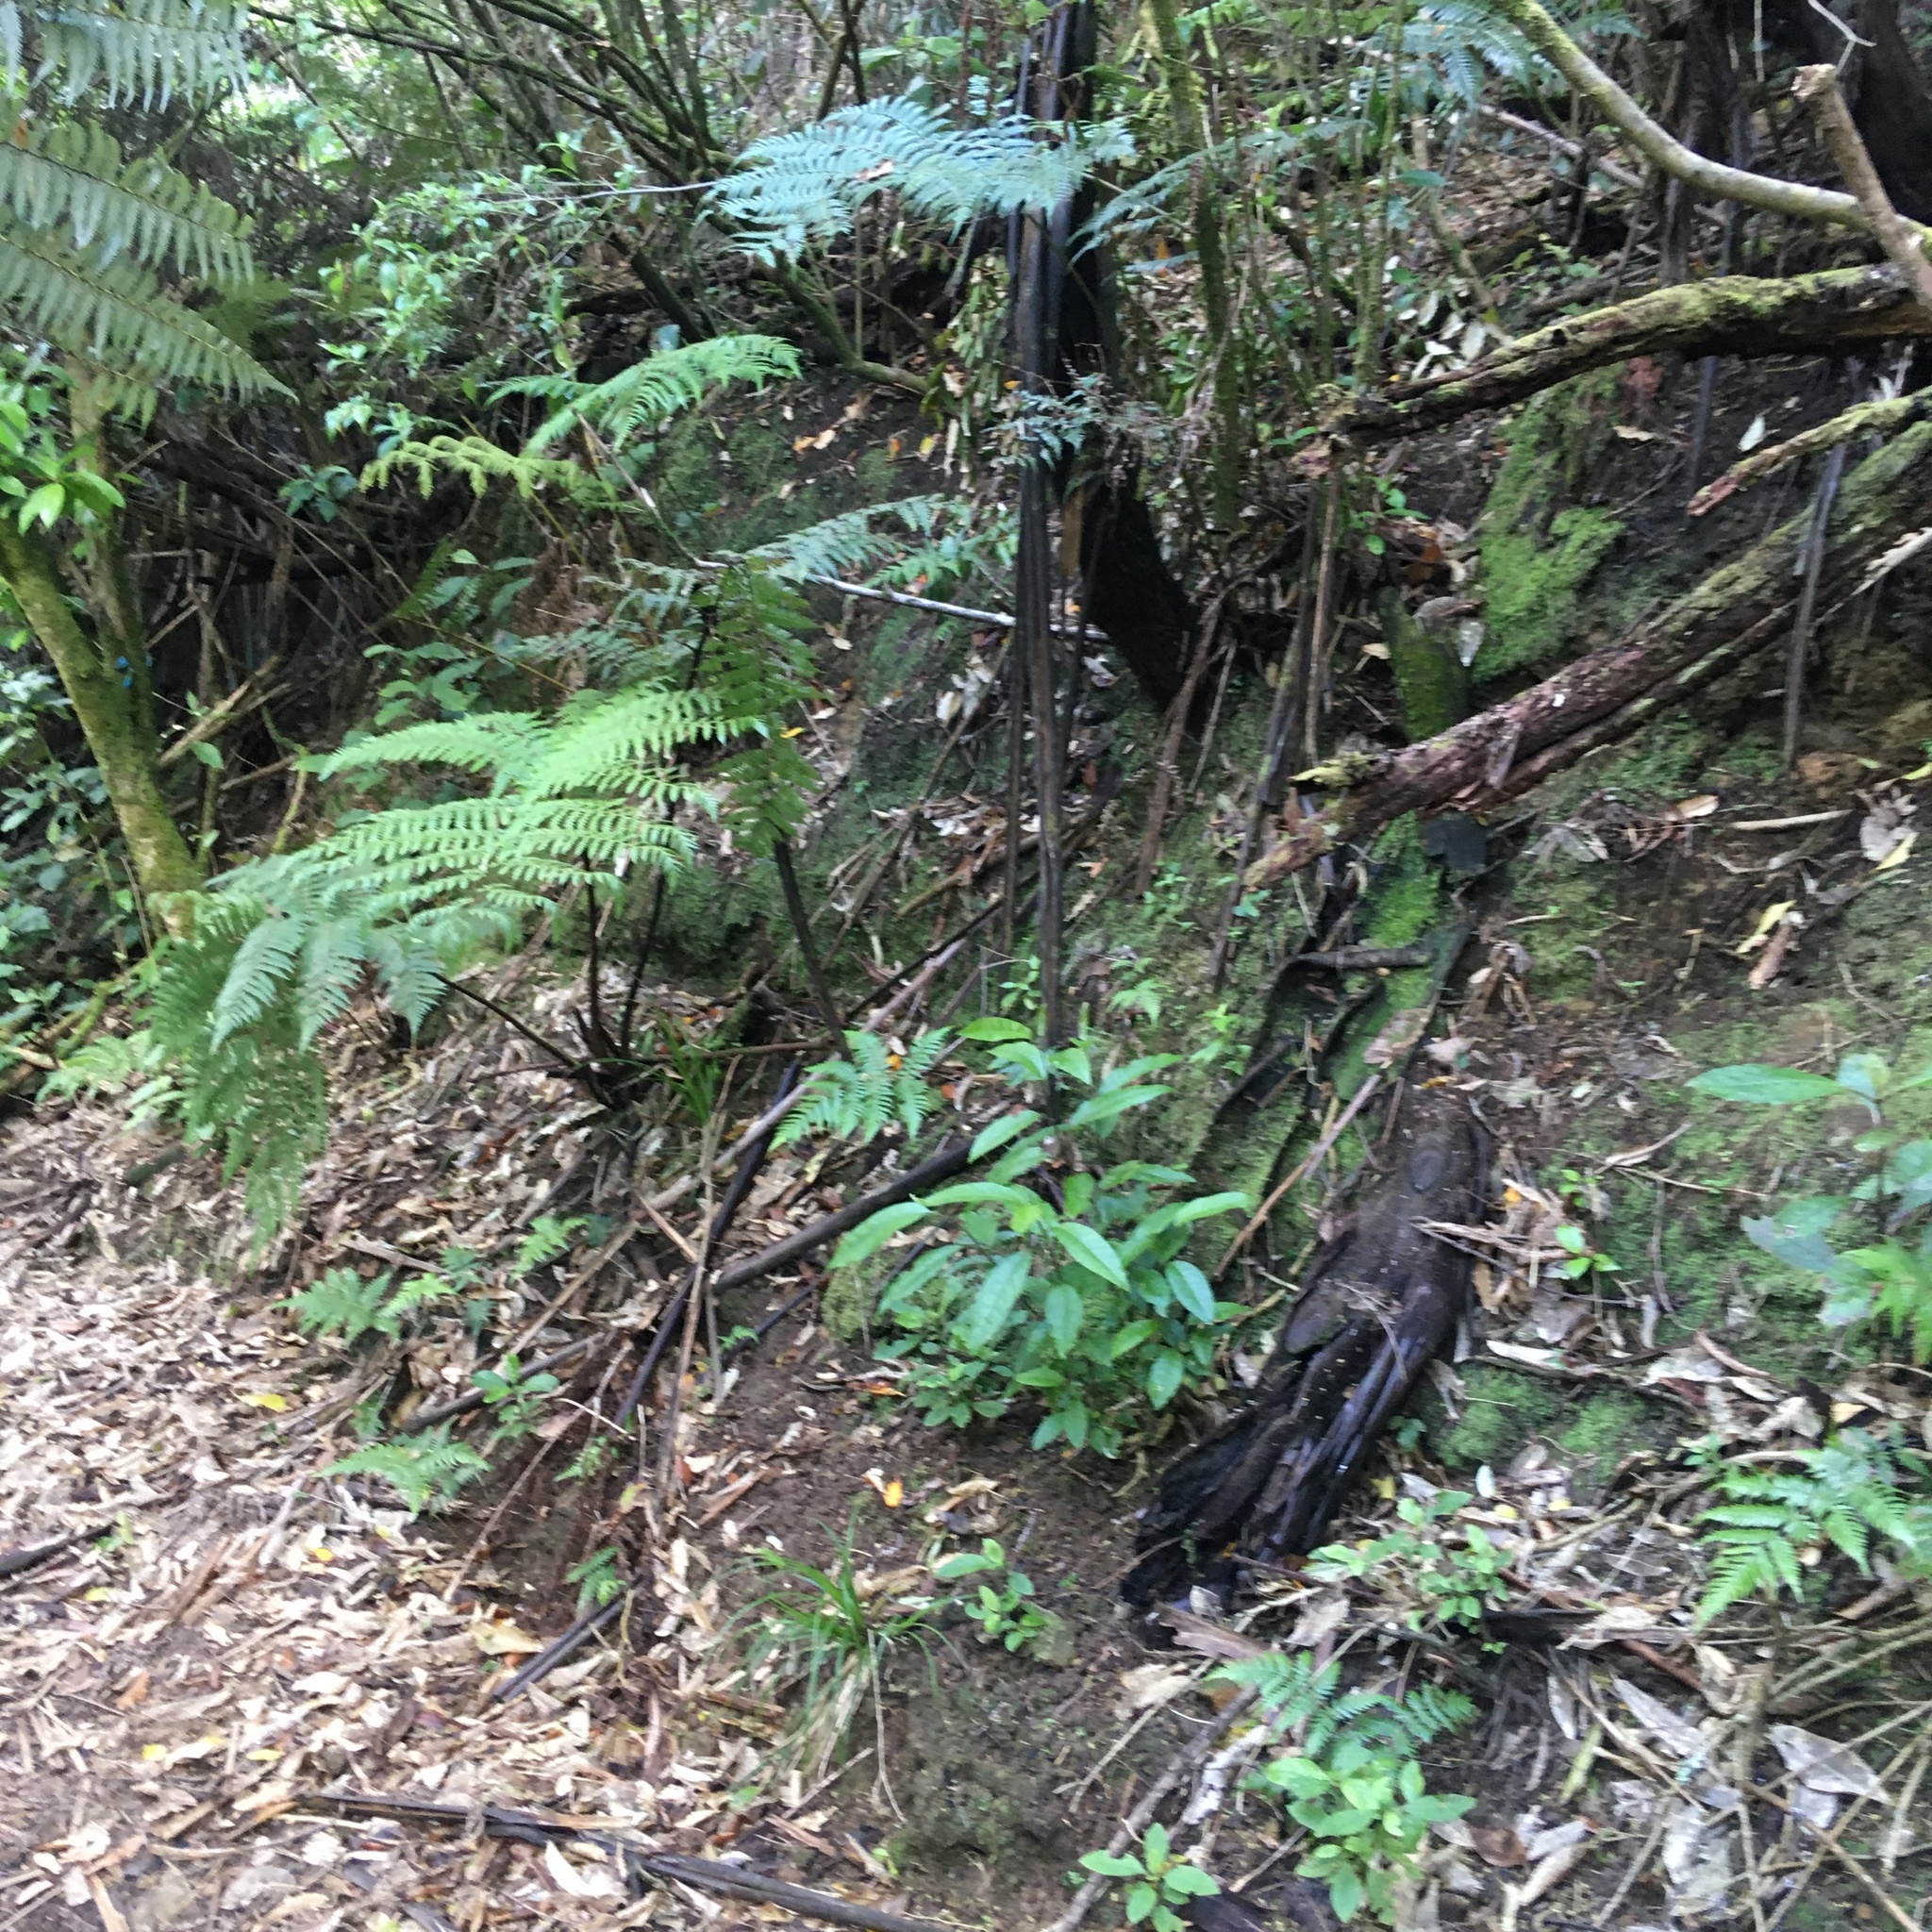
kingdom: Plantae
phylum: Tracheophyta
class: Magnoliopsida
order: Malpighiales
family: Violaceae
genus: Melicytus
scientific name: Melicytus ramiflorus
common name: Mahoe
